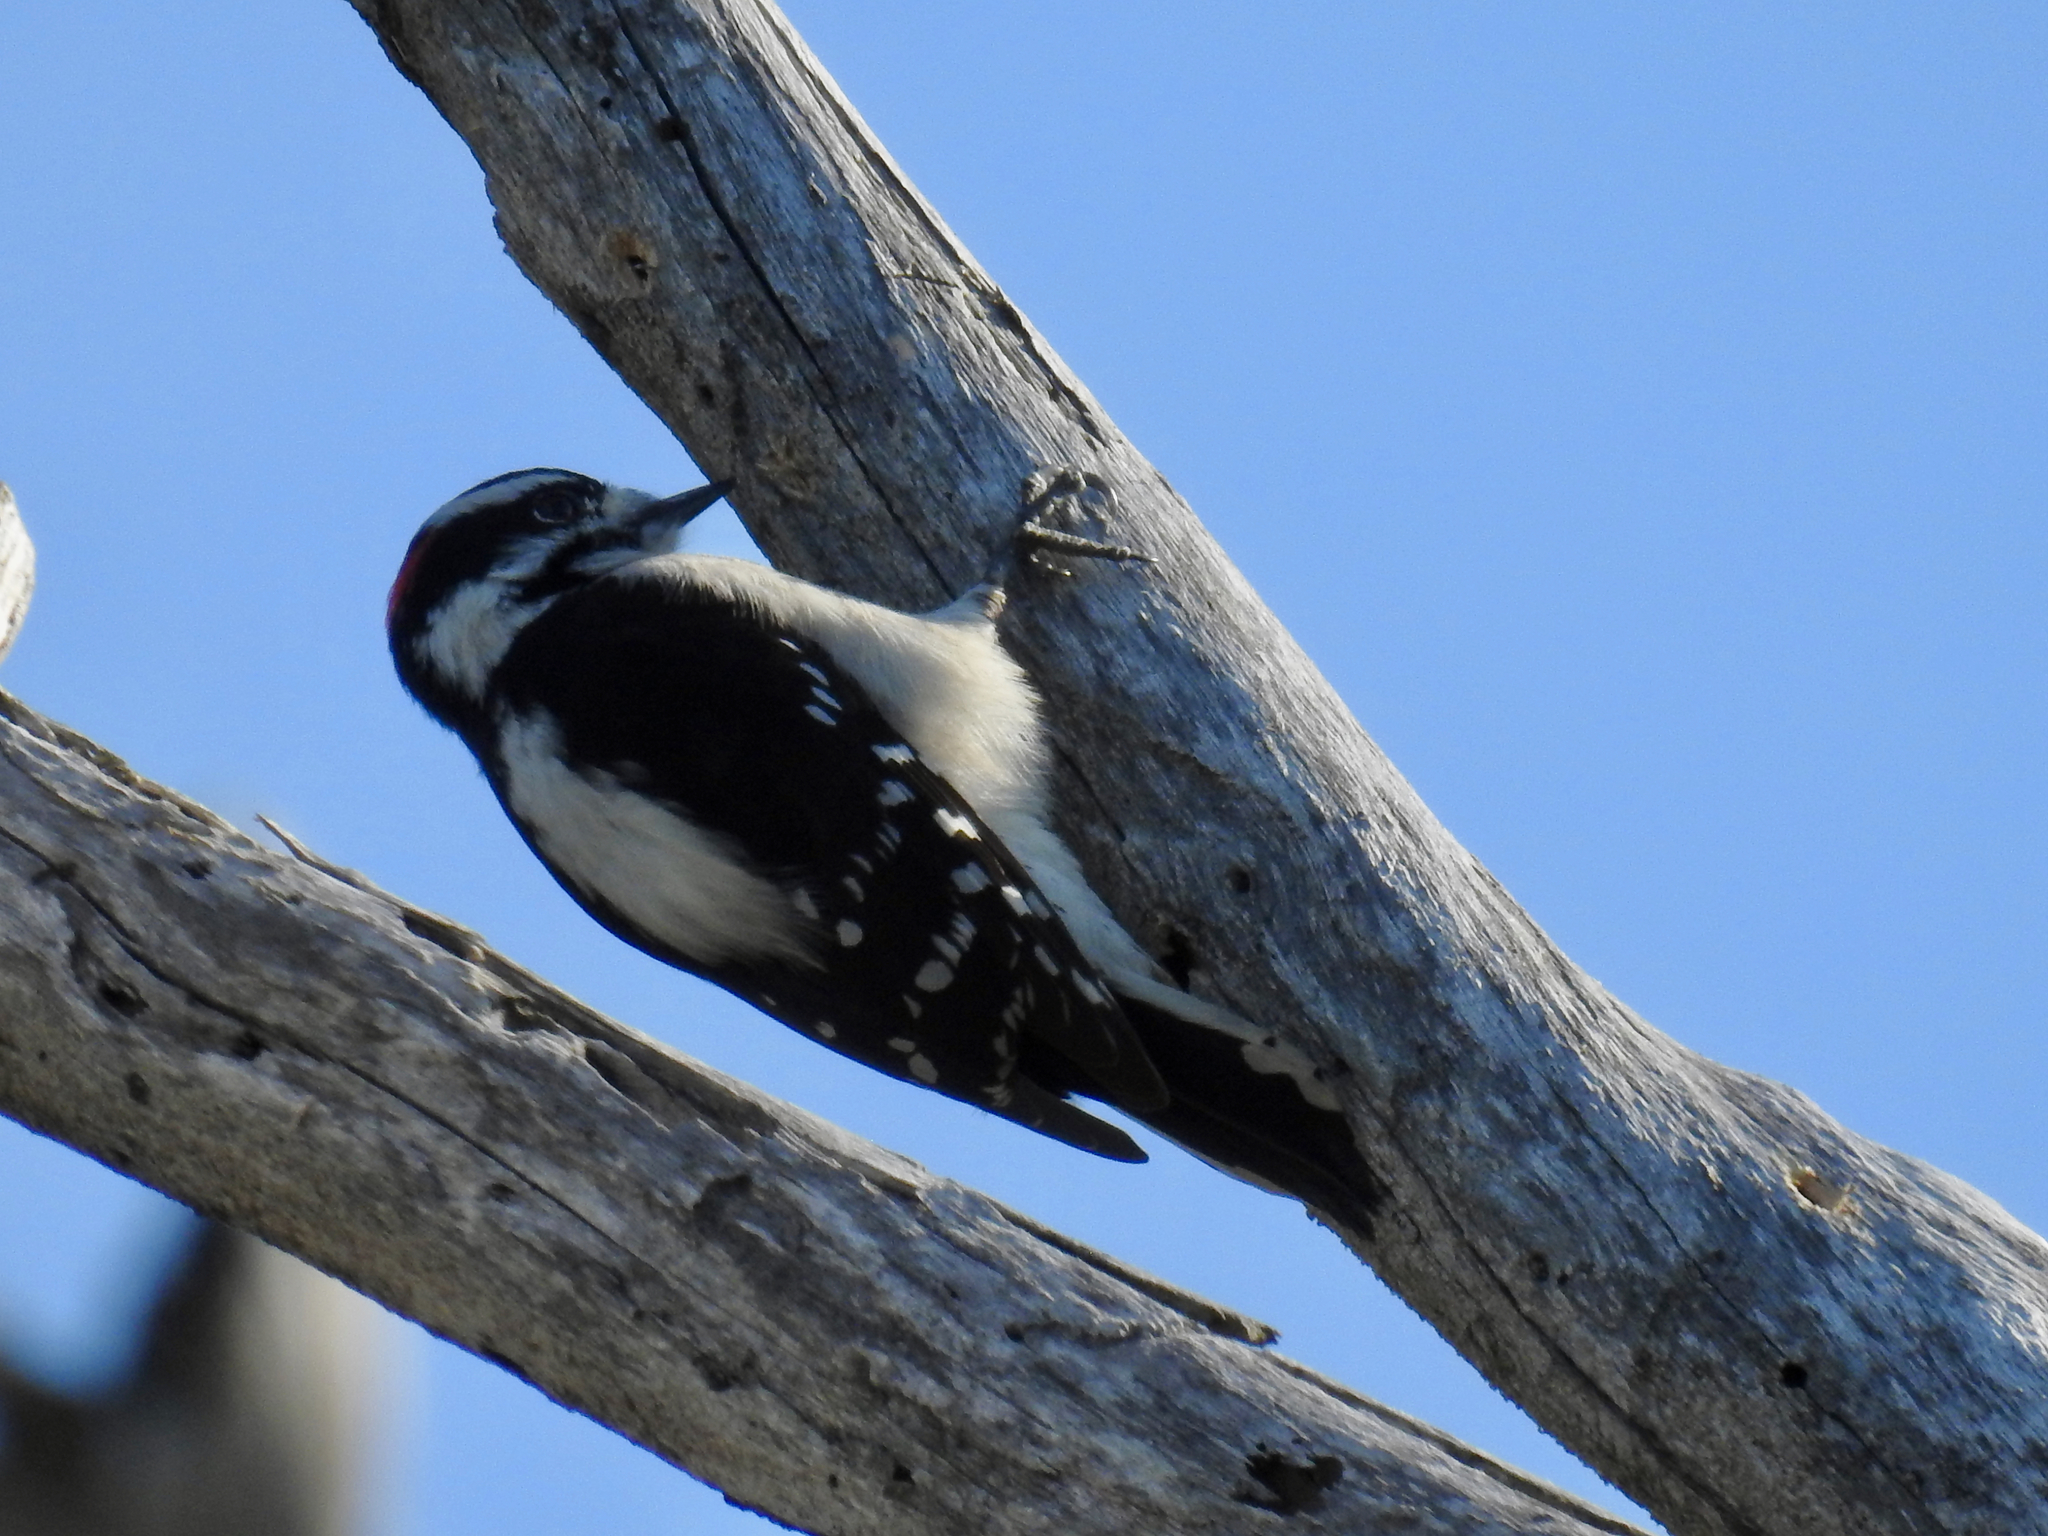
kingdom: Animalia
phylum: Chordata
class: Aves
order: Piciformes
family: Picidae
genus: Dryobates
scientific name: Dryobates pubescens
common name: Downy woodpecker
